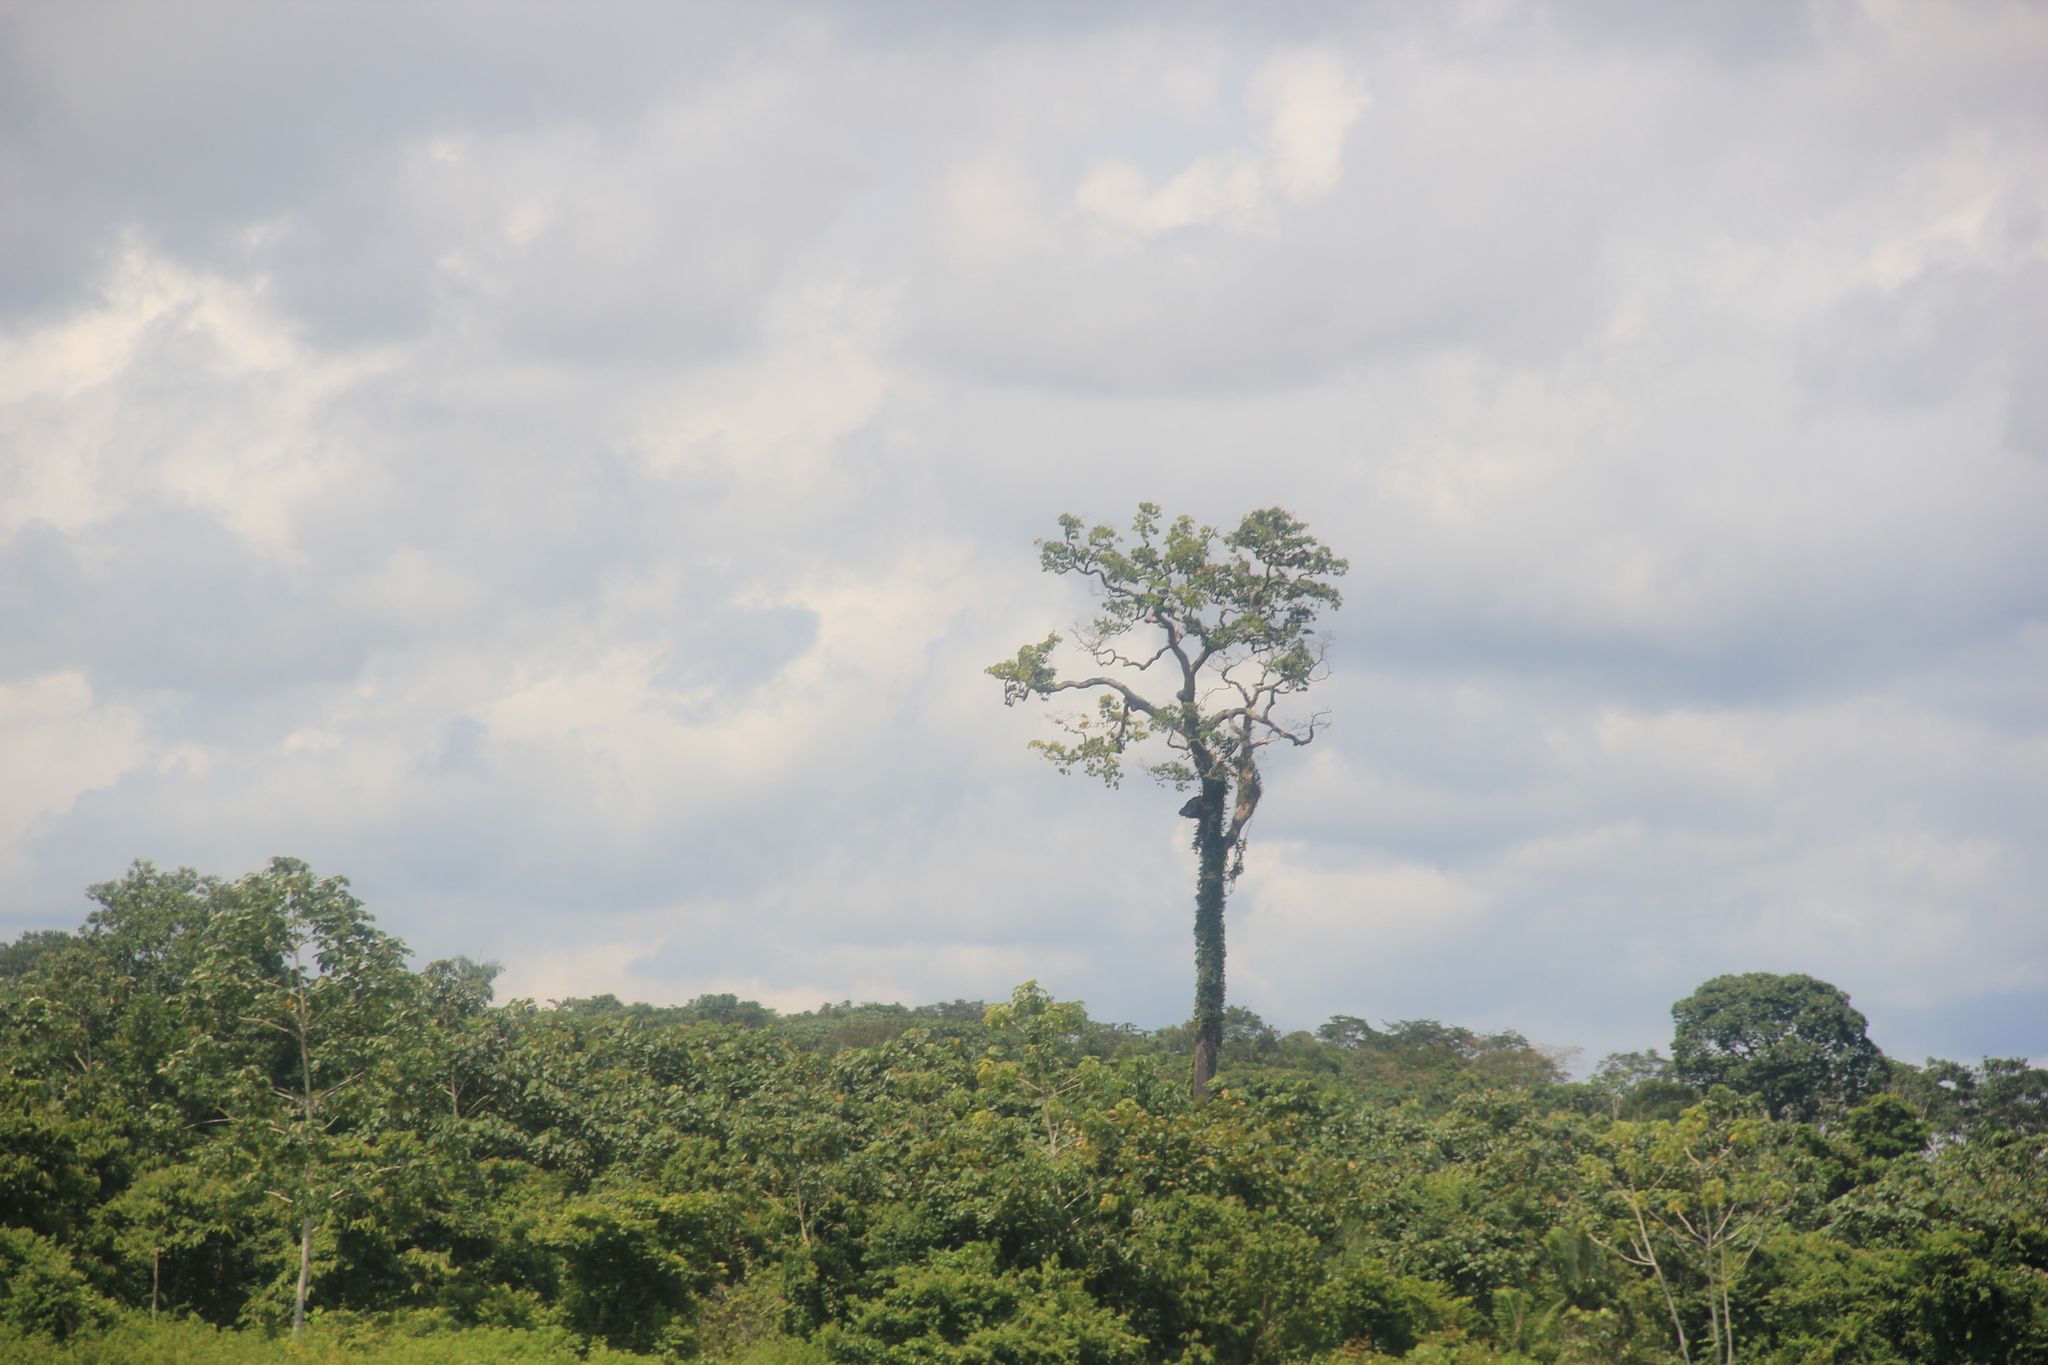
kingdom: Plantae
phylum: Tracheophyta
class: Magnoliopsida
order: Ericales
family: Lecythidaceae
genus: Bertholletia
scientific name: Bertholletia excelsa
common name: Brazil-nut tree
